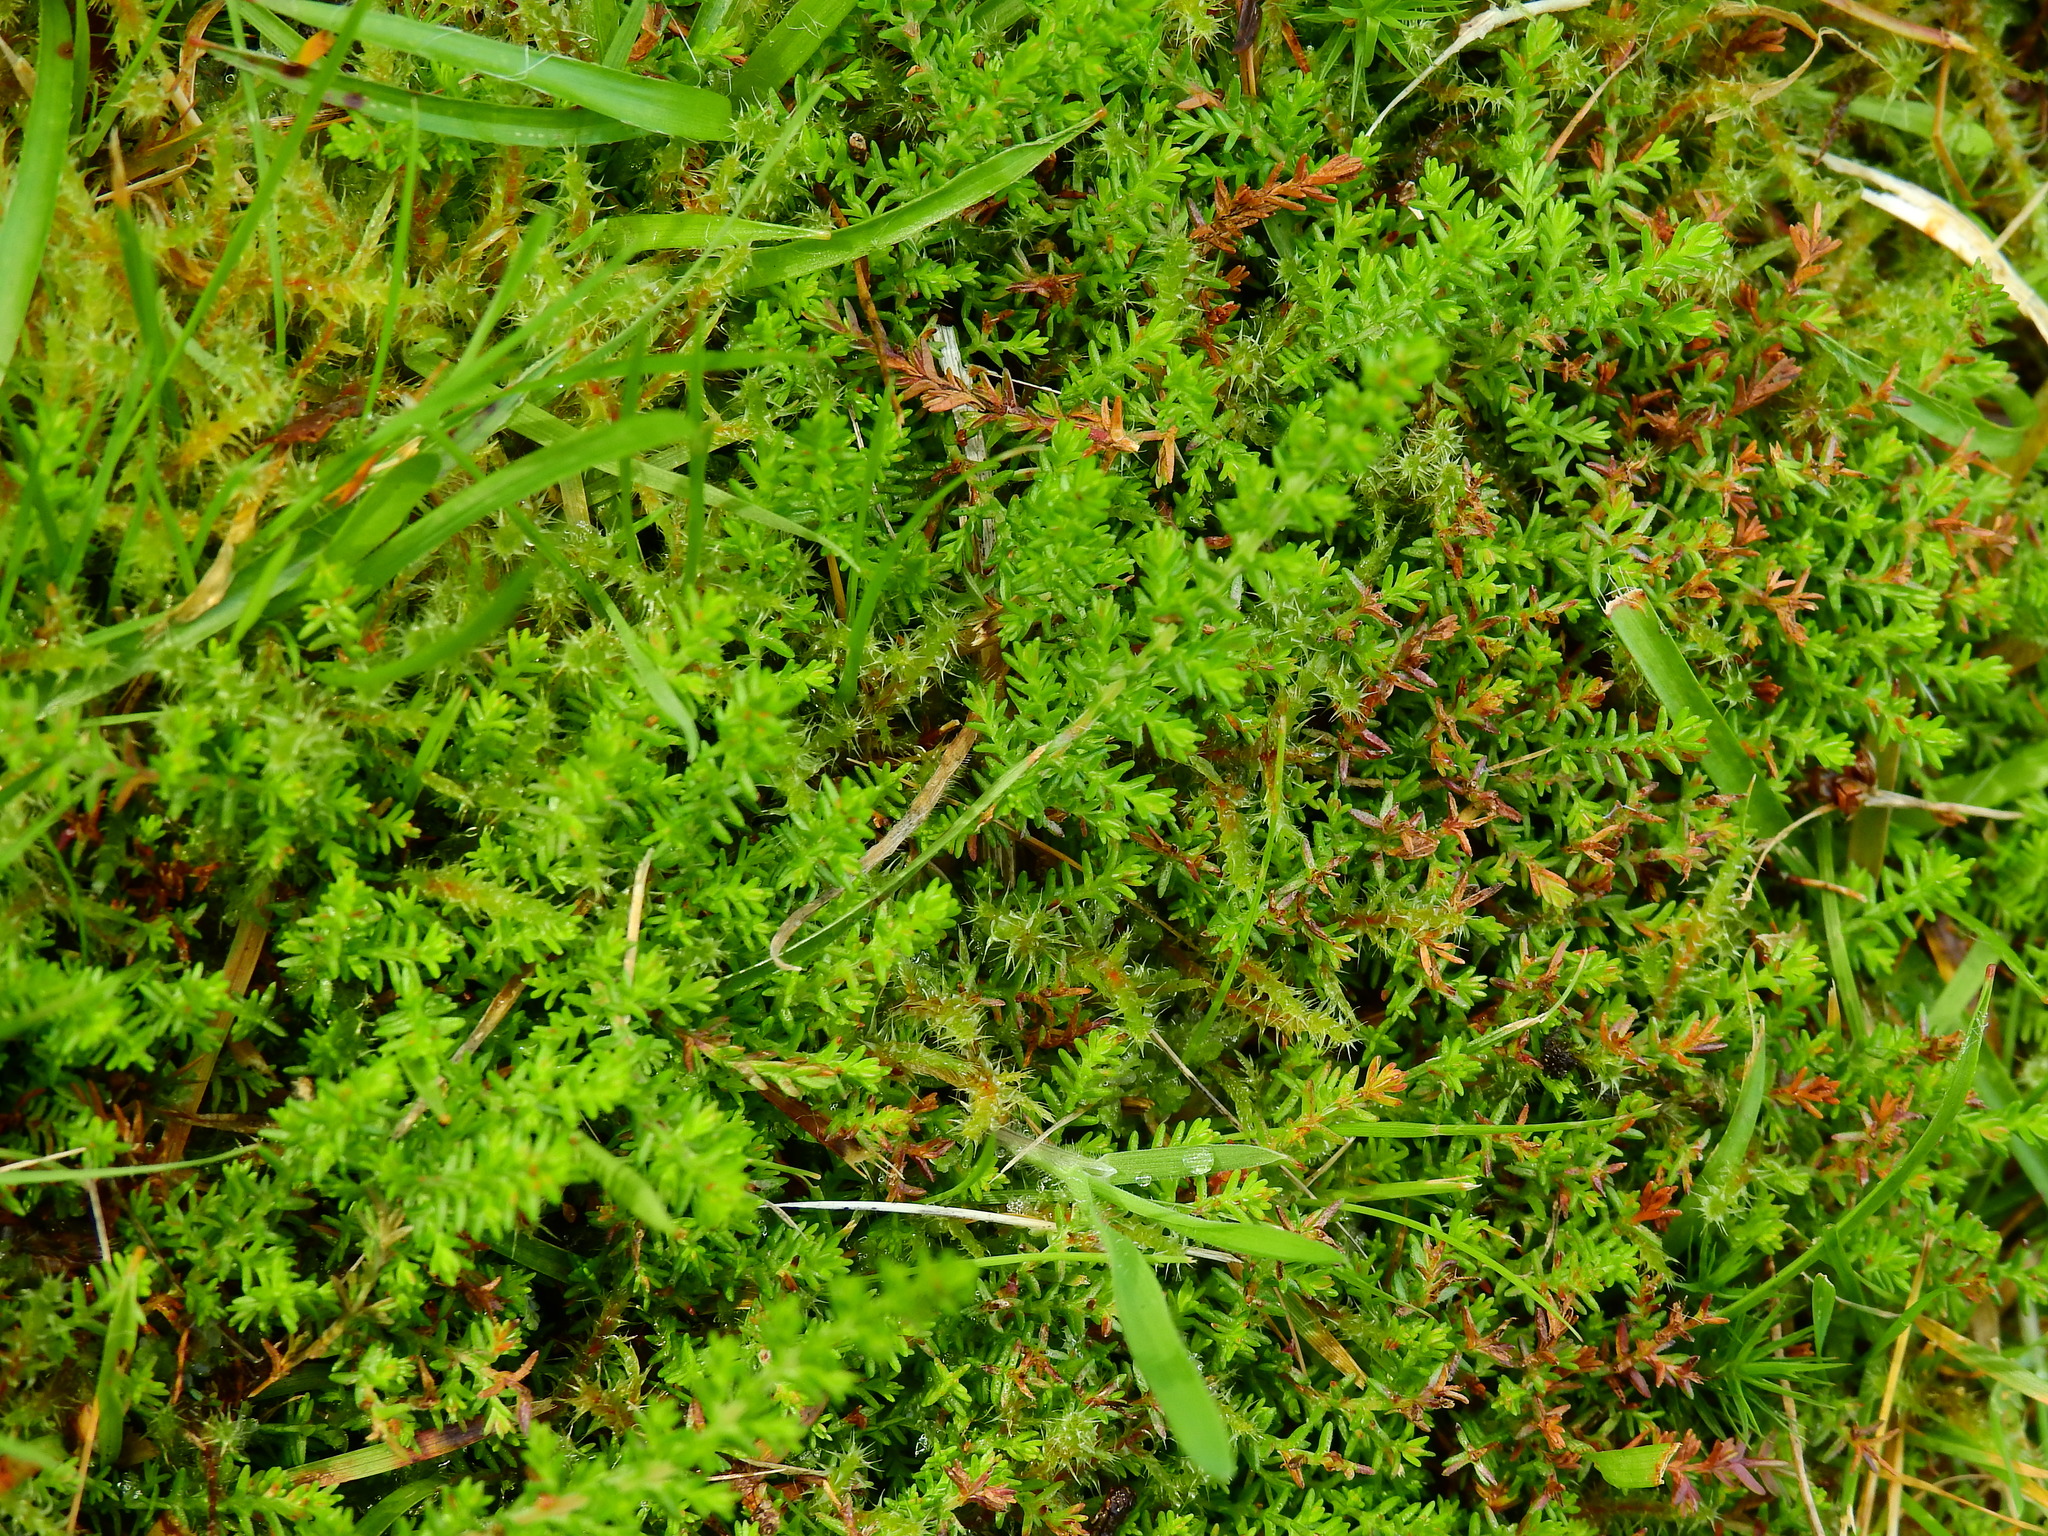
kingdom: Plantae
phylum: Tracheophyta
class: Magnoliopsida
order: Ericales
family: Ericaceae
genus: Calluna
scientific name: Calluna vulgaris
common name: Heather
